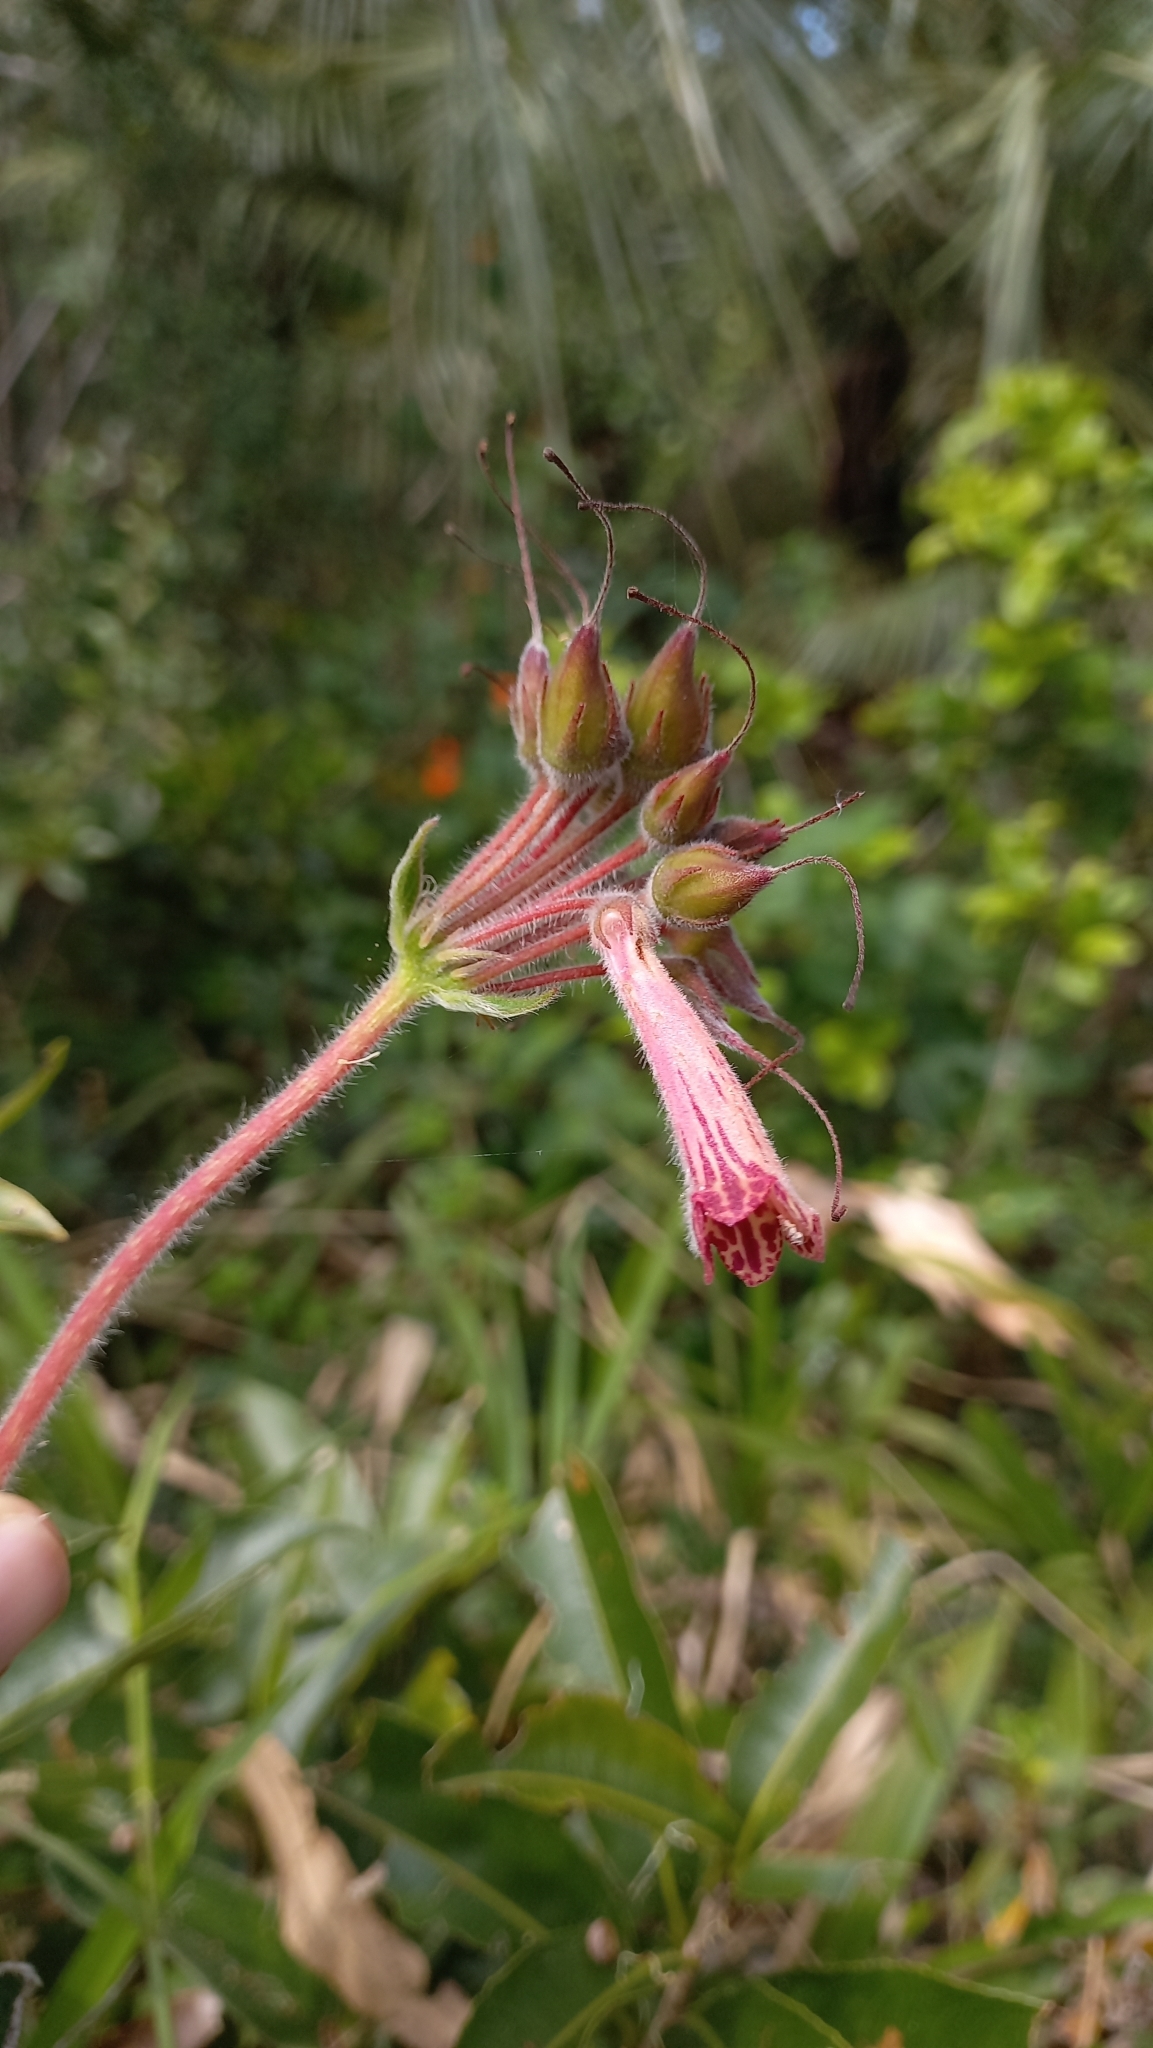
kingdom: Plantae
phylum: Tracheophyta
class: Magnoliopsida
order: Lamiales
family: Gesneriaceae
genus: Sinningia
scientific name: Sinningia polyantha
